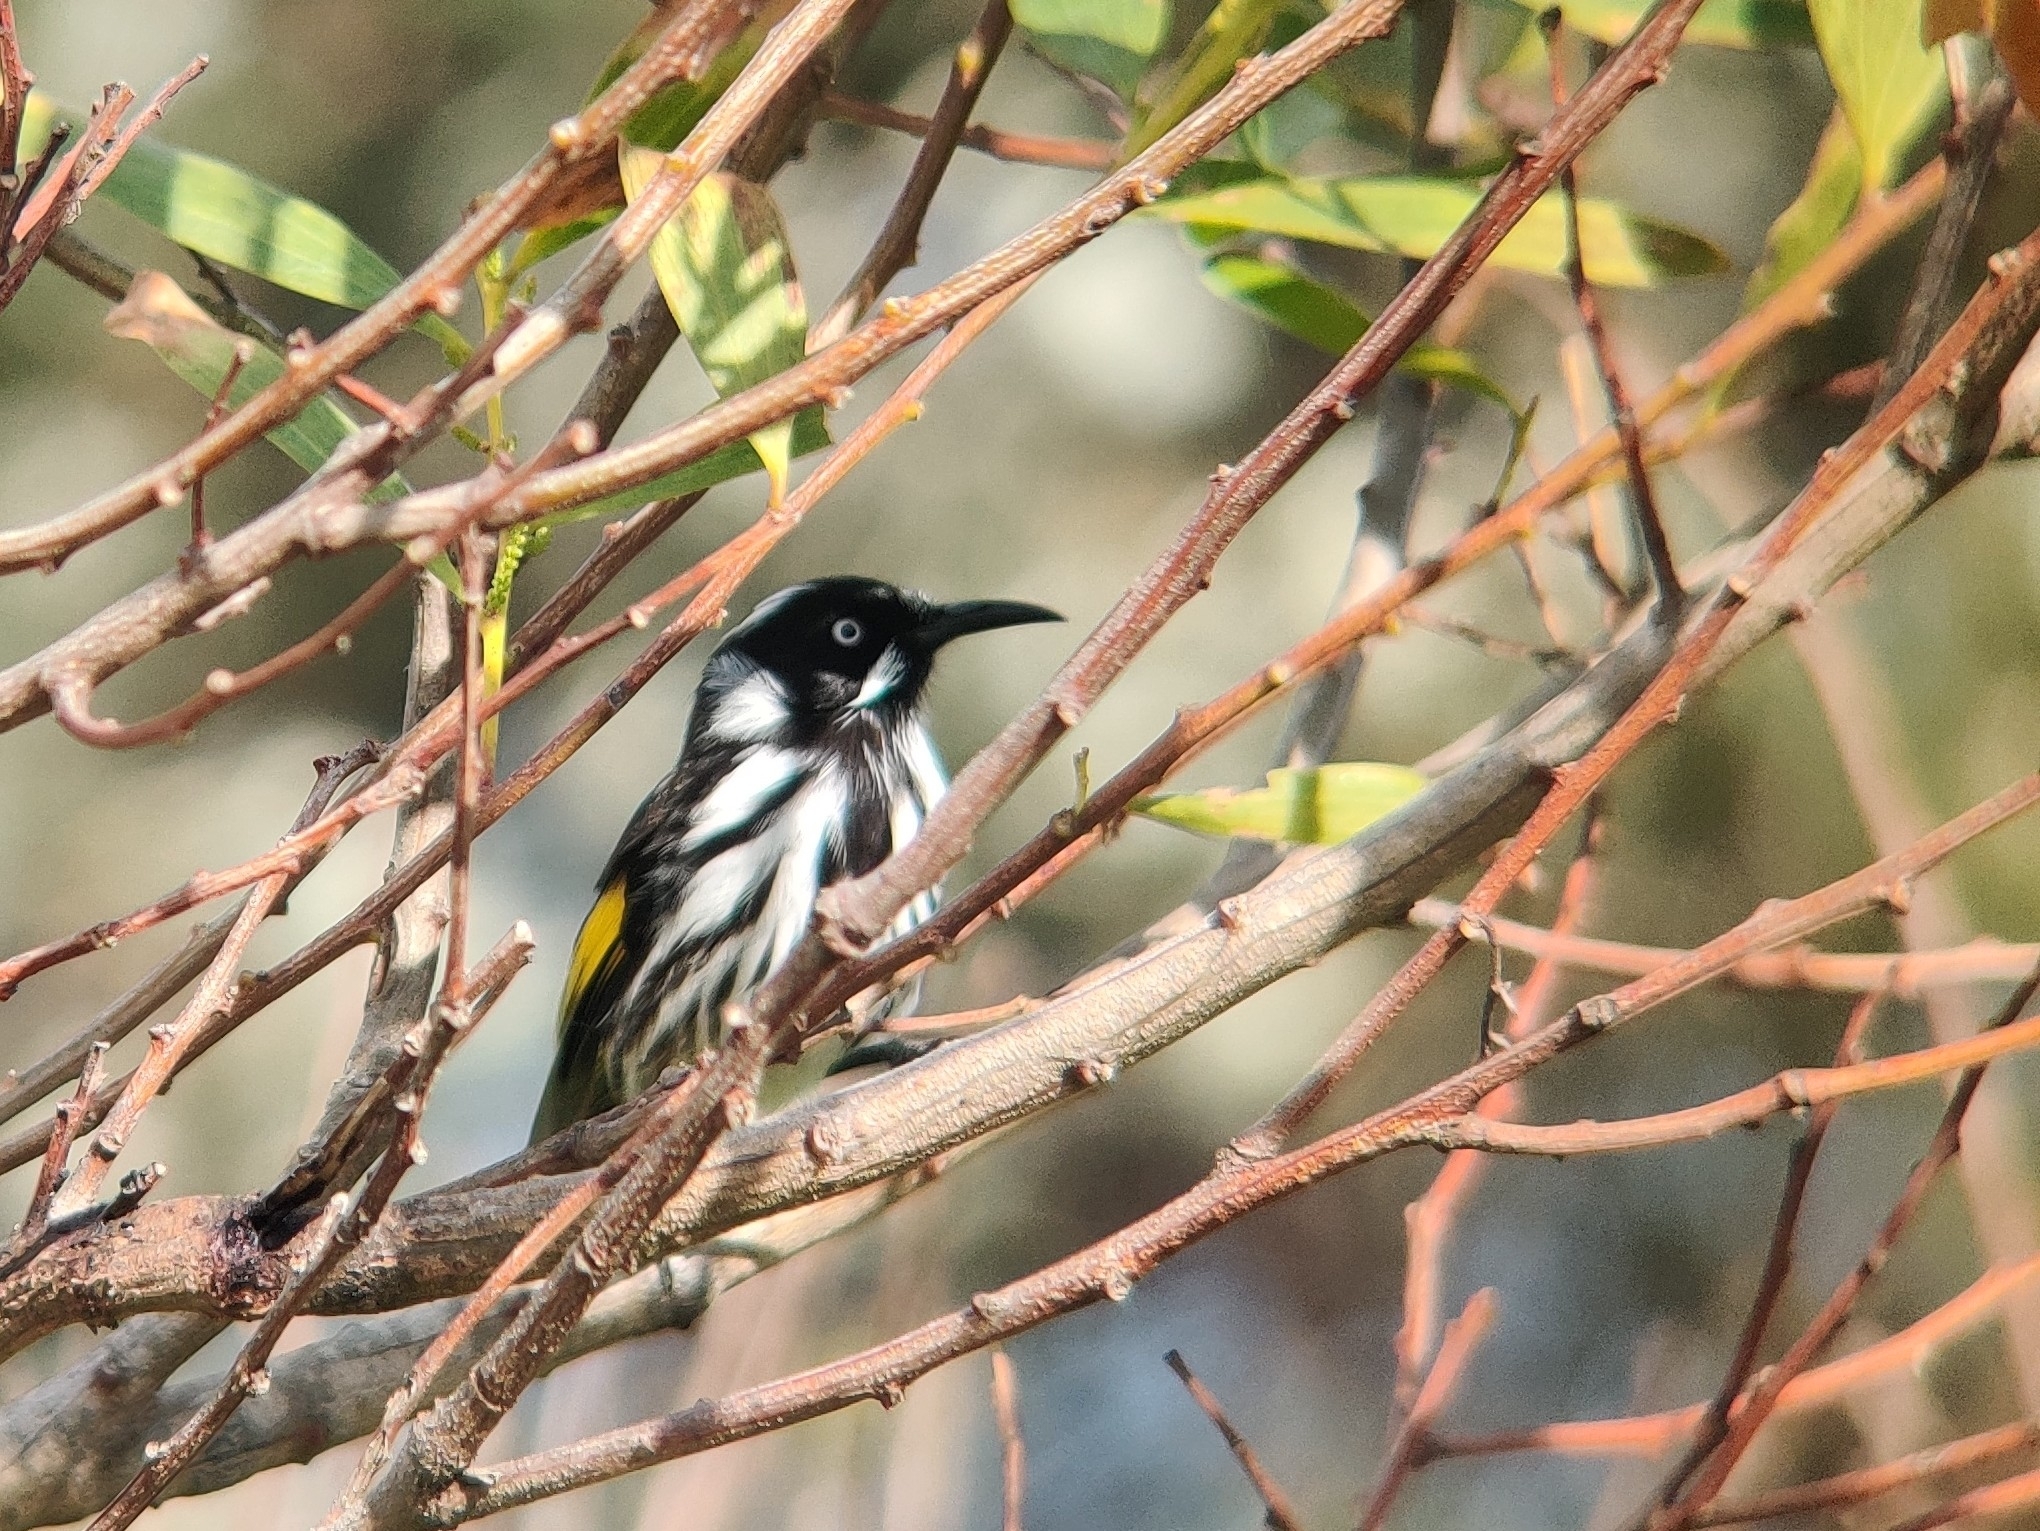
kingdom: Animalia
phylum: Chordata
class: Aves
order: Passeriformes
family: Meliphagidae
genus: Phylidonyris
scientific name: Phylidonyris novaehollandiae
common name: New holland honeyeater
